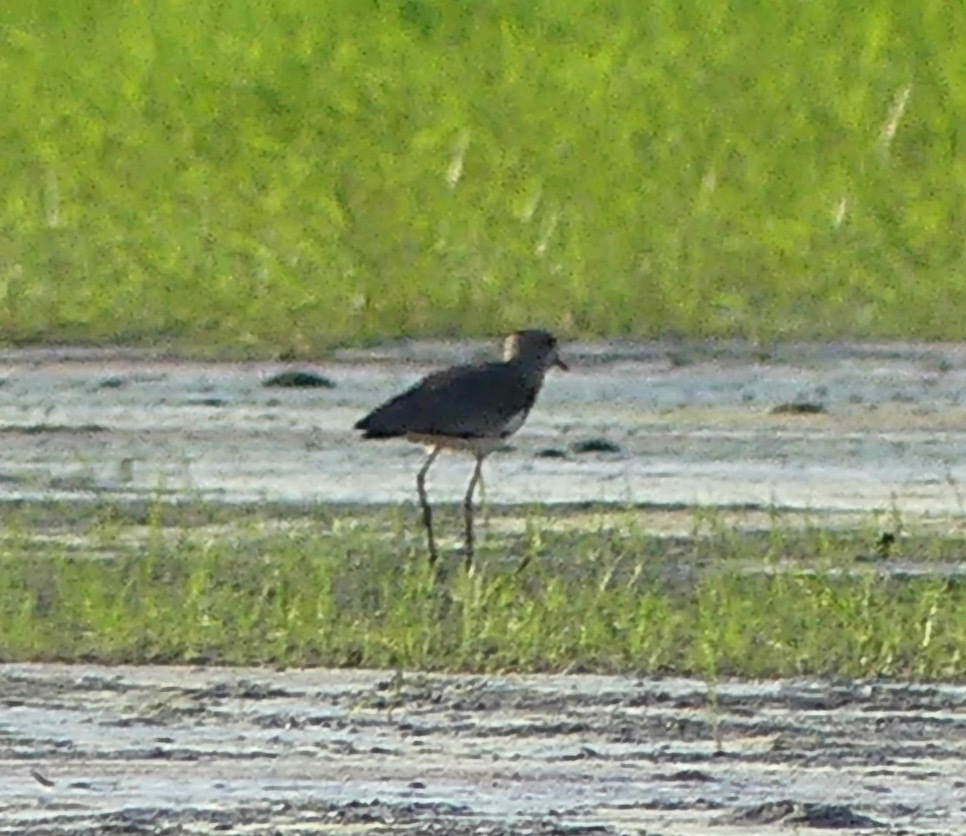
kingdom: Animalia
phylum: Chordata
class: Aves
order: Charadriiformes
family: Charadriidae
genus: Vanellus
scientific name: Vanellus chilensis
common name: Southern lapwing
